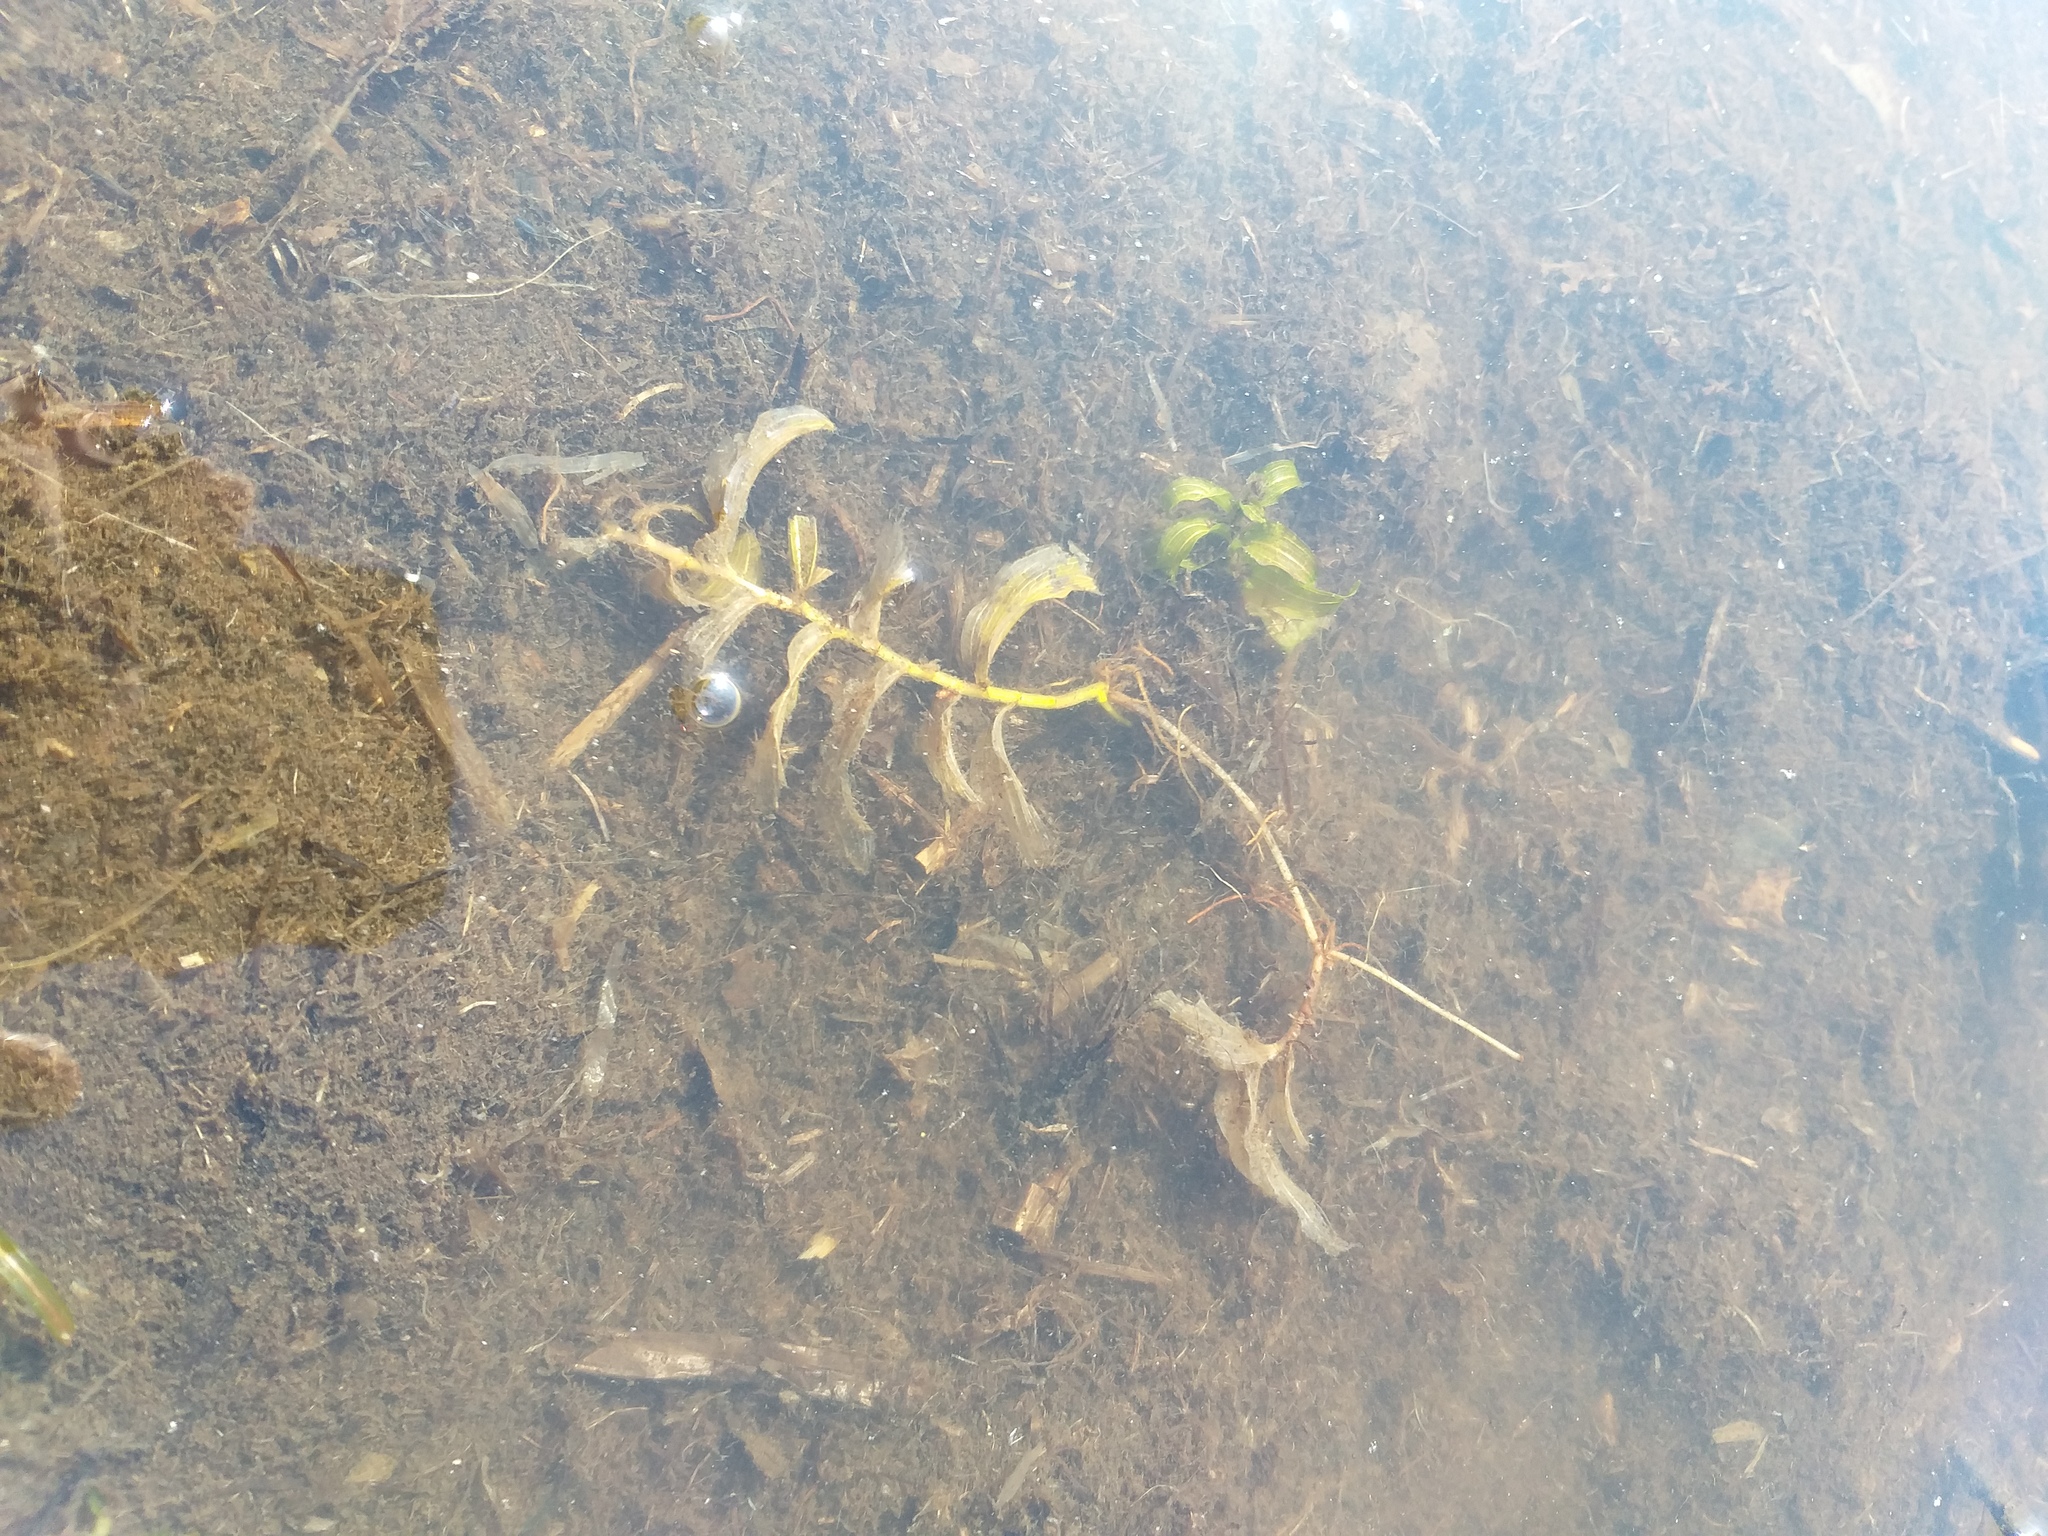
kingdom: Plantae
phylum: Tracheophyta
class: Liliopsida
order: Alismatales
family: Potamogetonaceae
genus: Potamogeton
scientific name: Potamogeton perfoliatus
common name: Perfoliate pondweed
